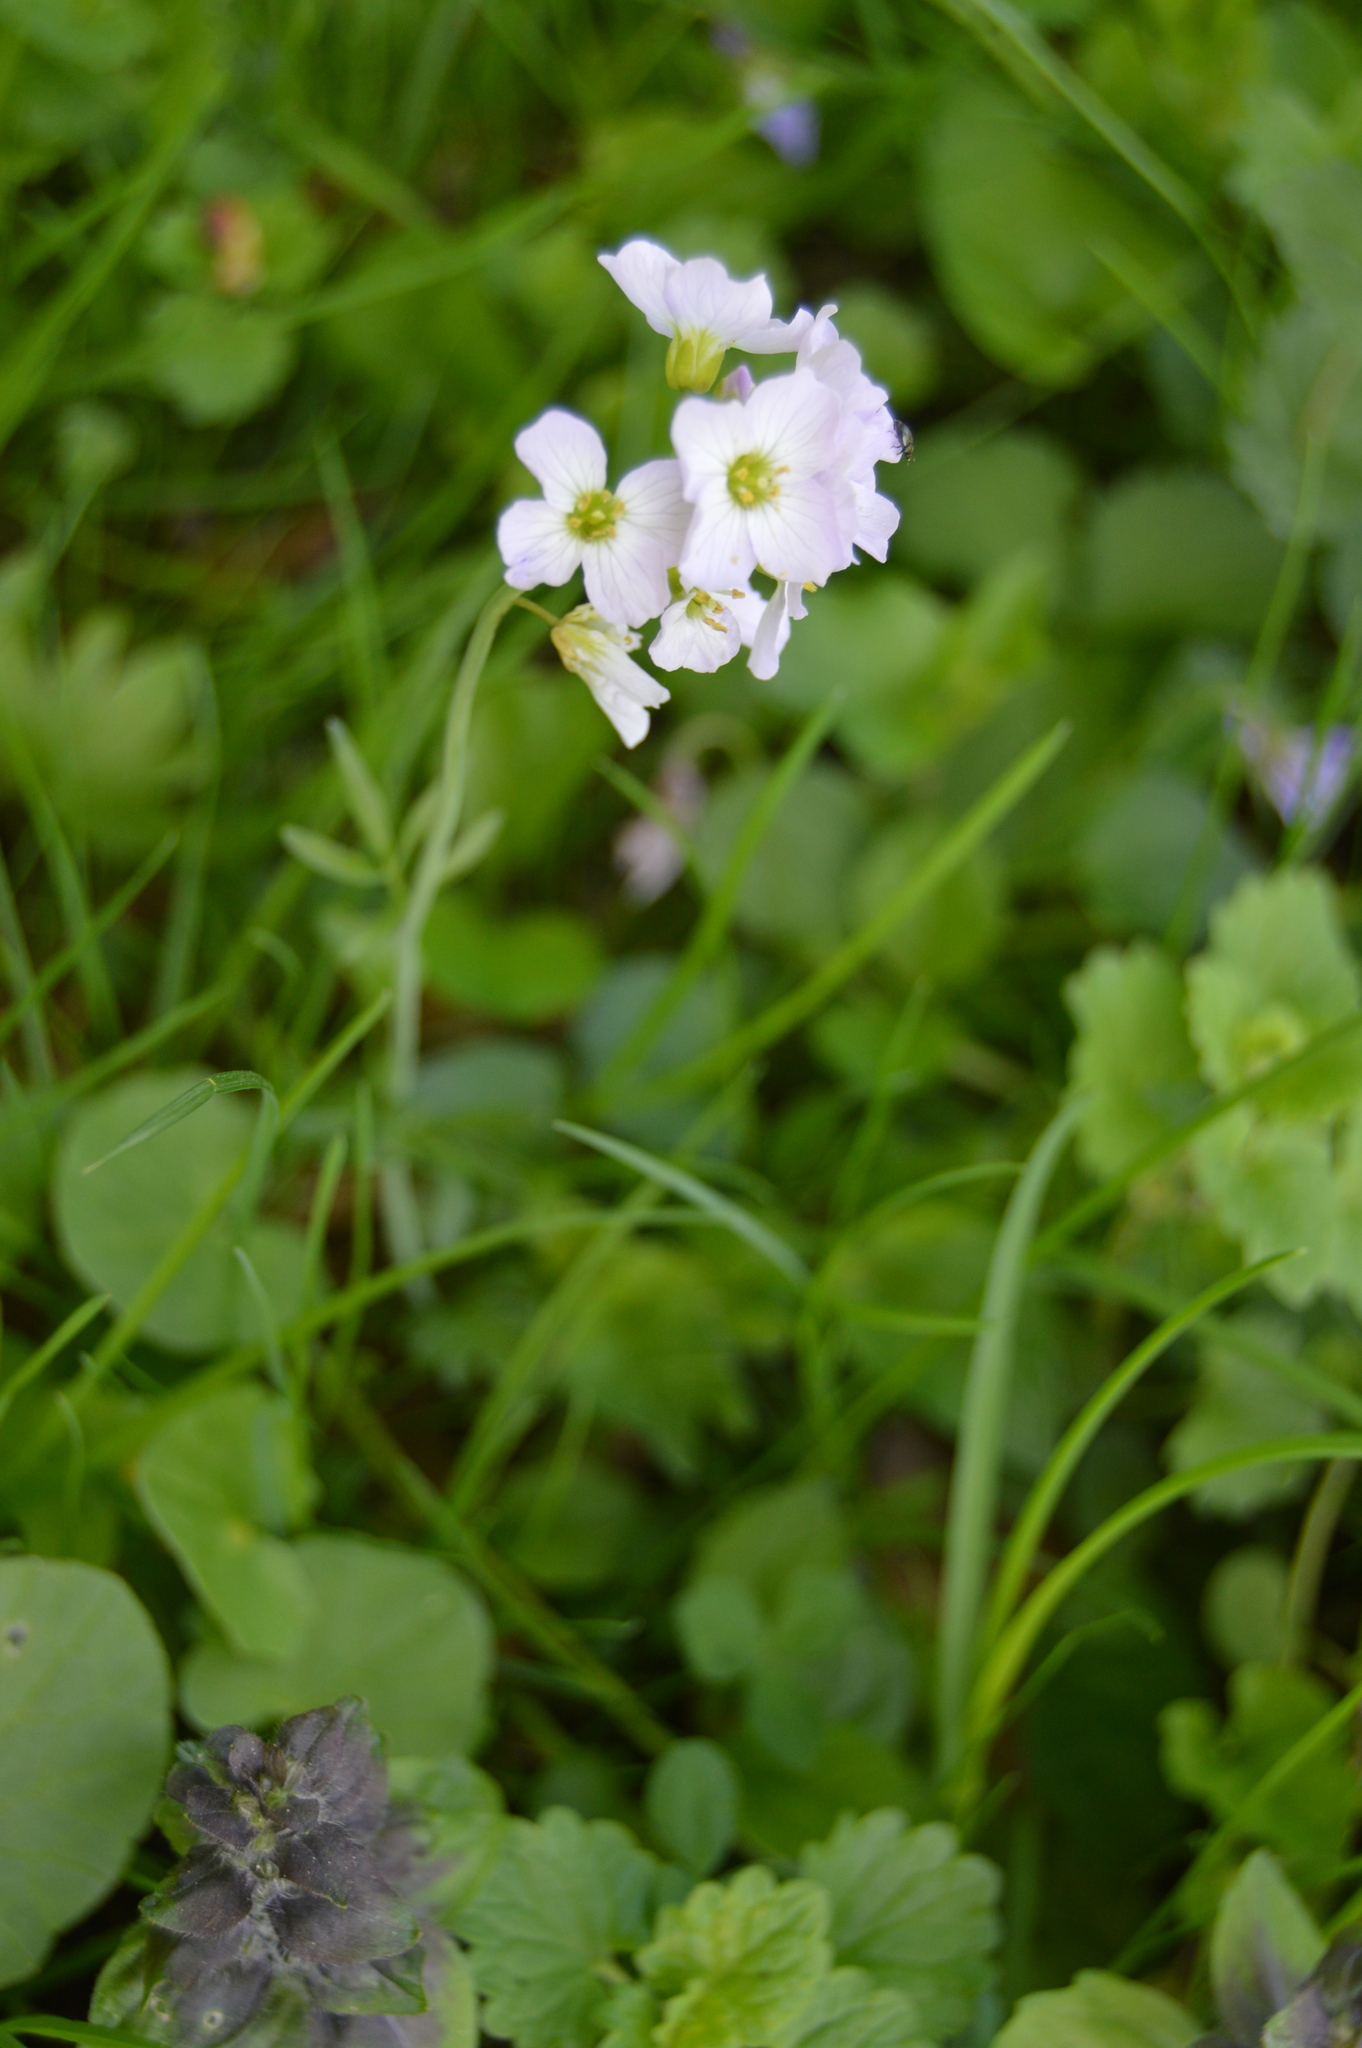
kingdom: Plantae
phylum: Tracheophyta
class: Magnoliopsida
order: Brassicales
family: Brassicaceae
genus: Cardamine
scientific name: Cardamine pratensis
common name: Cuckoo flower
